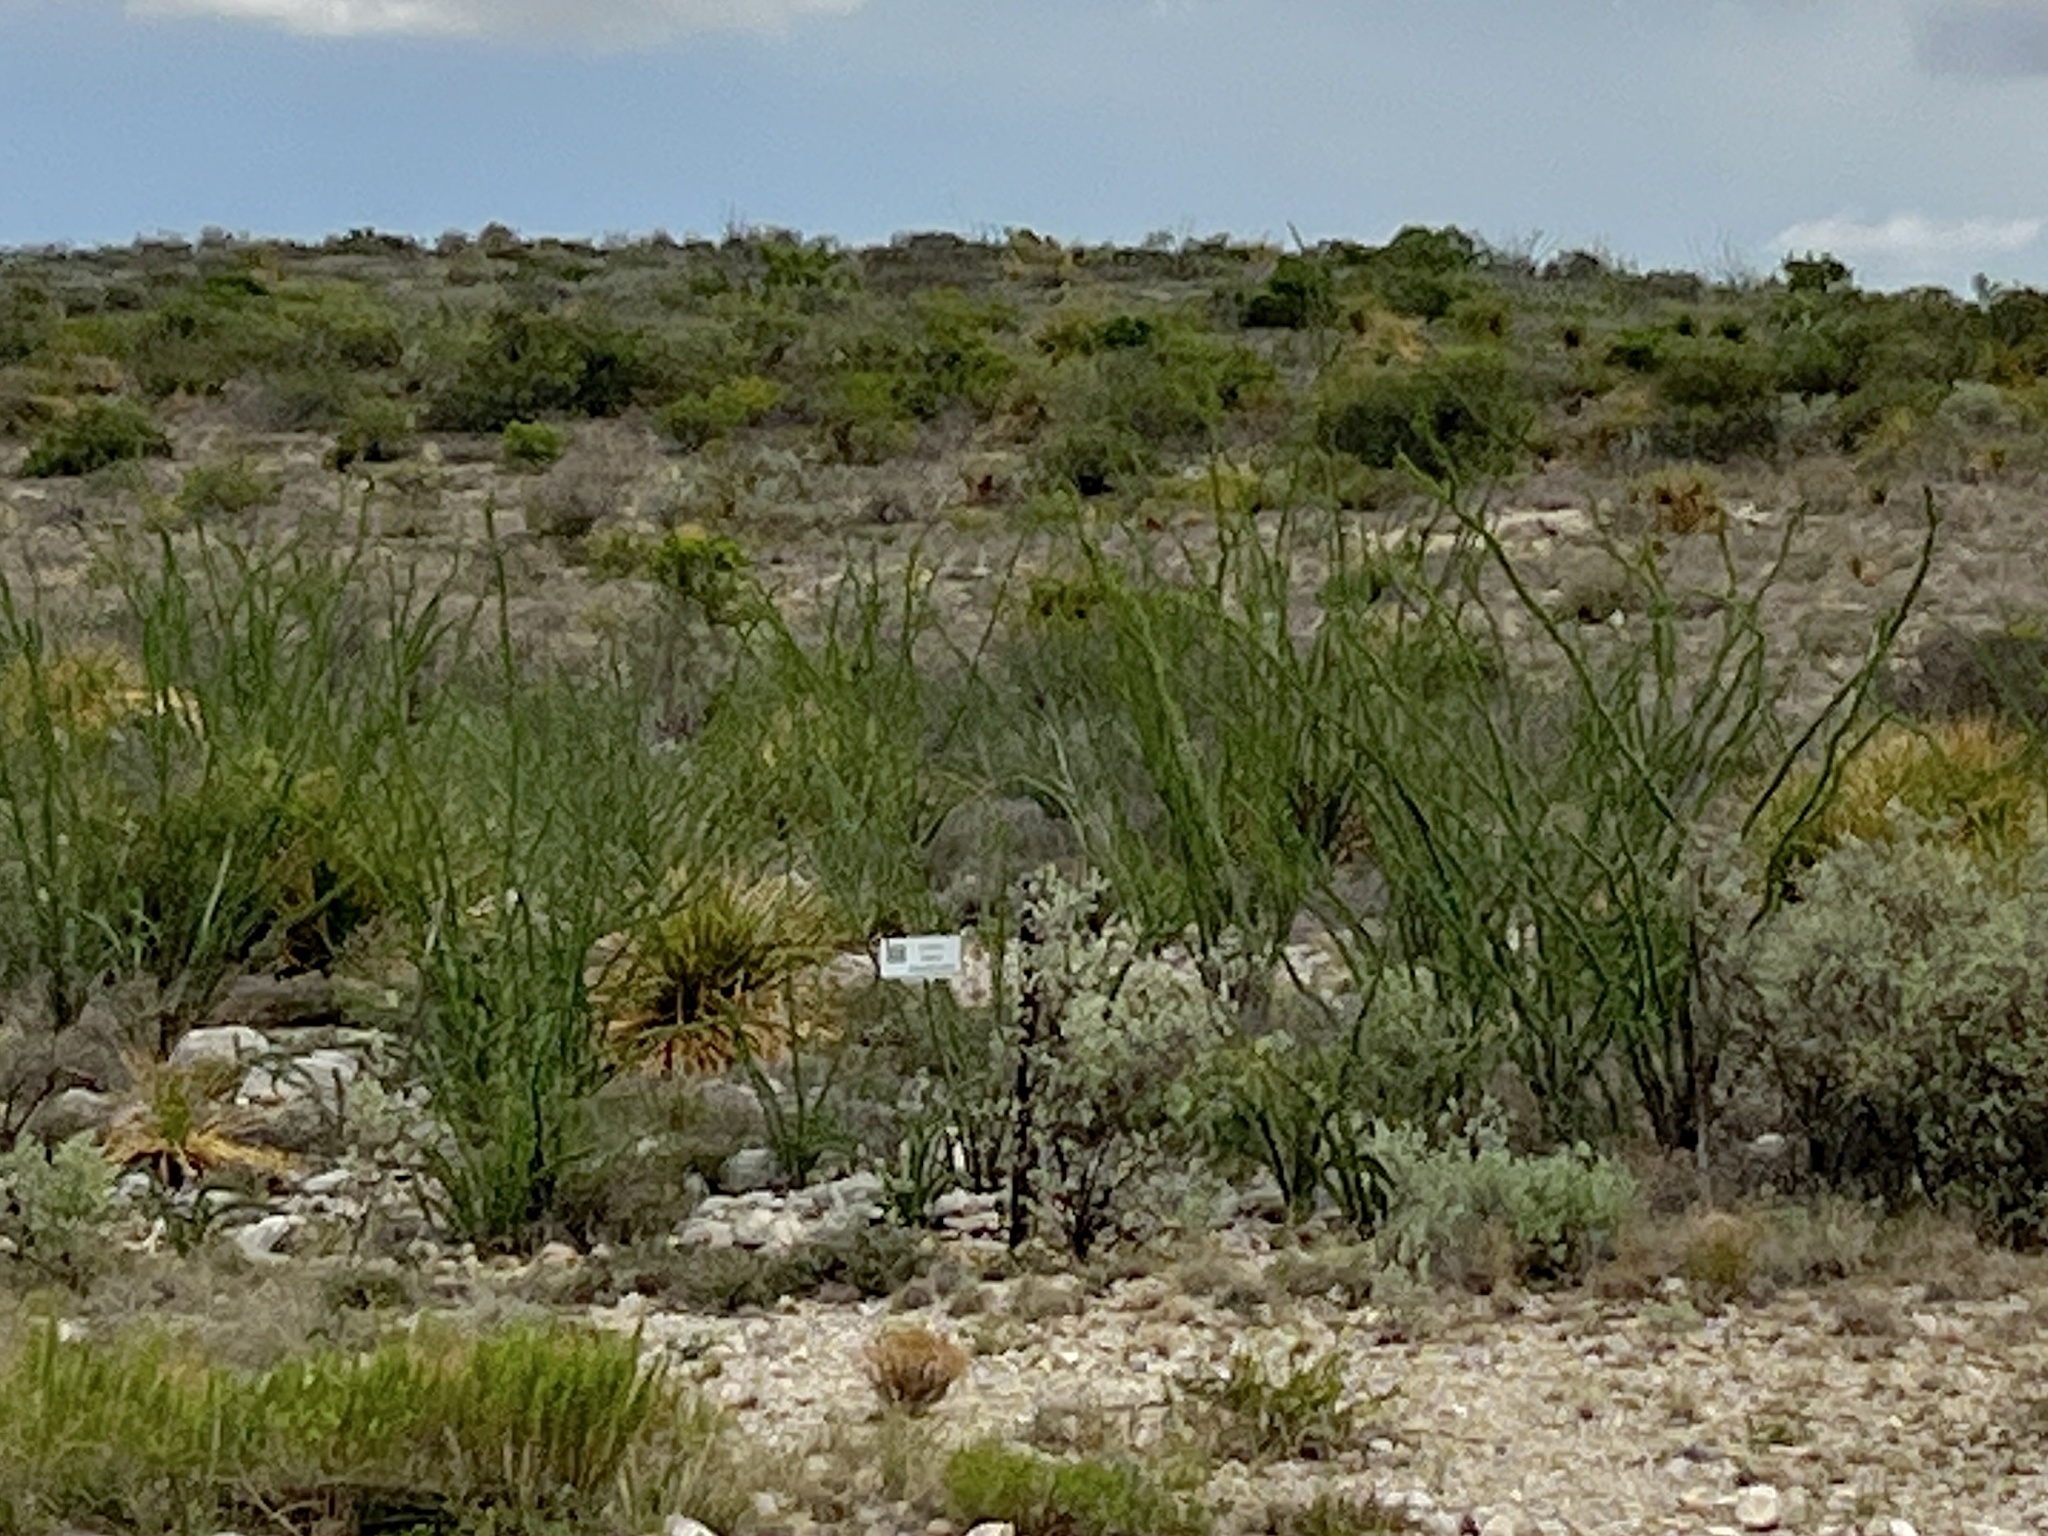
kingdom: Plantae
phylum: Tracheophyta
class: Magnoliopsida
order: Ericales
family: Fouquieriaceae
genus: Fouquieria
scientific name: Fouquieria splendens
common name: Vine-cactus
